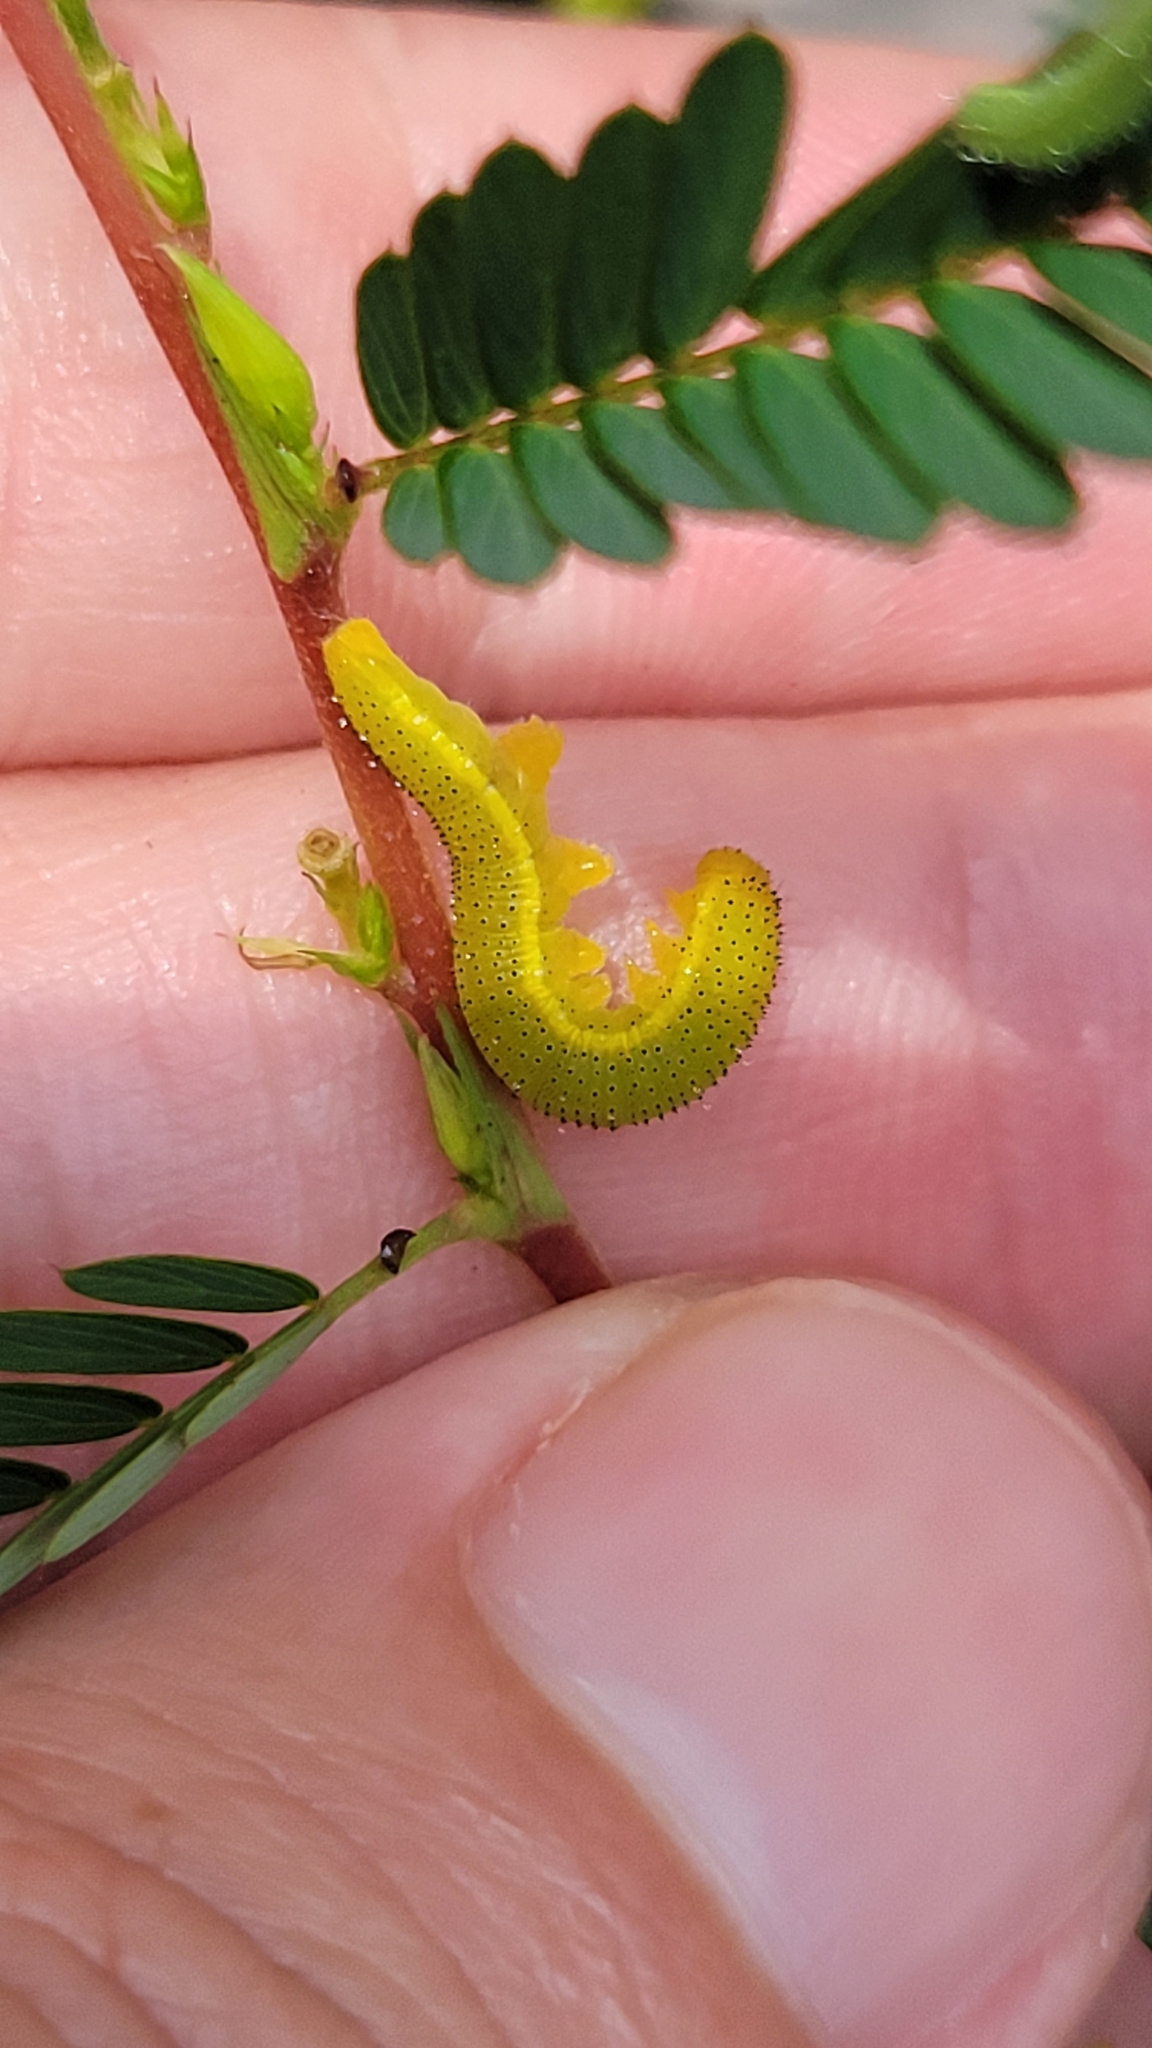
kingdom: Animalia
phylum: Arthropoda
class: Insecta
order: Lepidoptera
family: Pieridae
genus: Phoebis
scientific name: Phoebis sennae
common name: Cloudless sulphur
